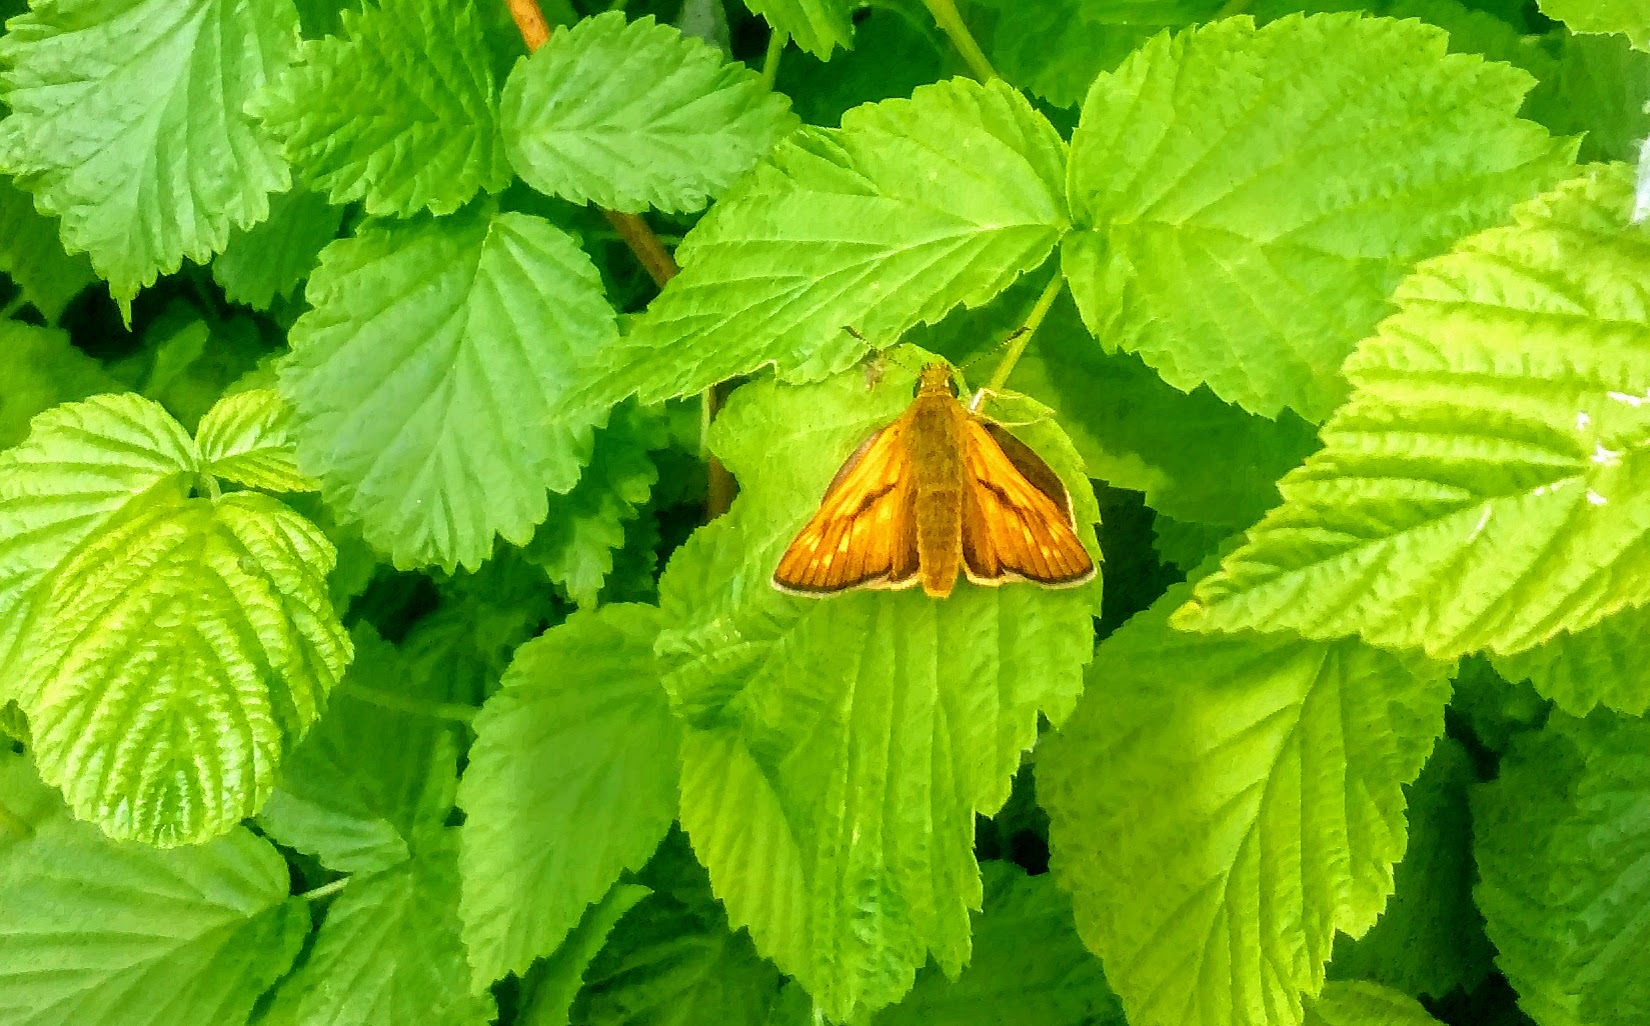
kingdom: Animalia
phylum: Arthropoda
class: Insecta
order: Lepidoptera
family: Hesperiidae
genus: Ochlodes
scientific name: Ochlodes venata
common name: Large skipper
